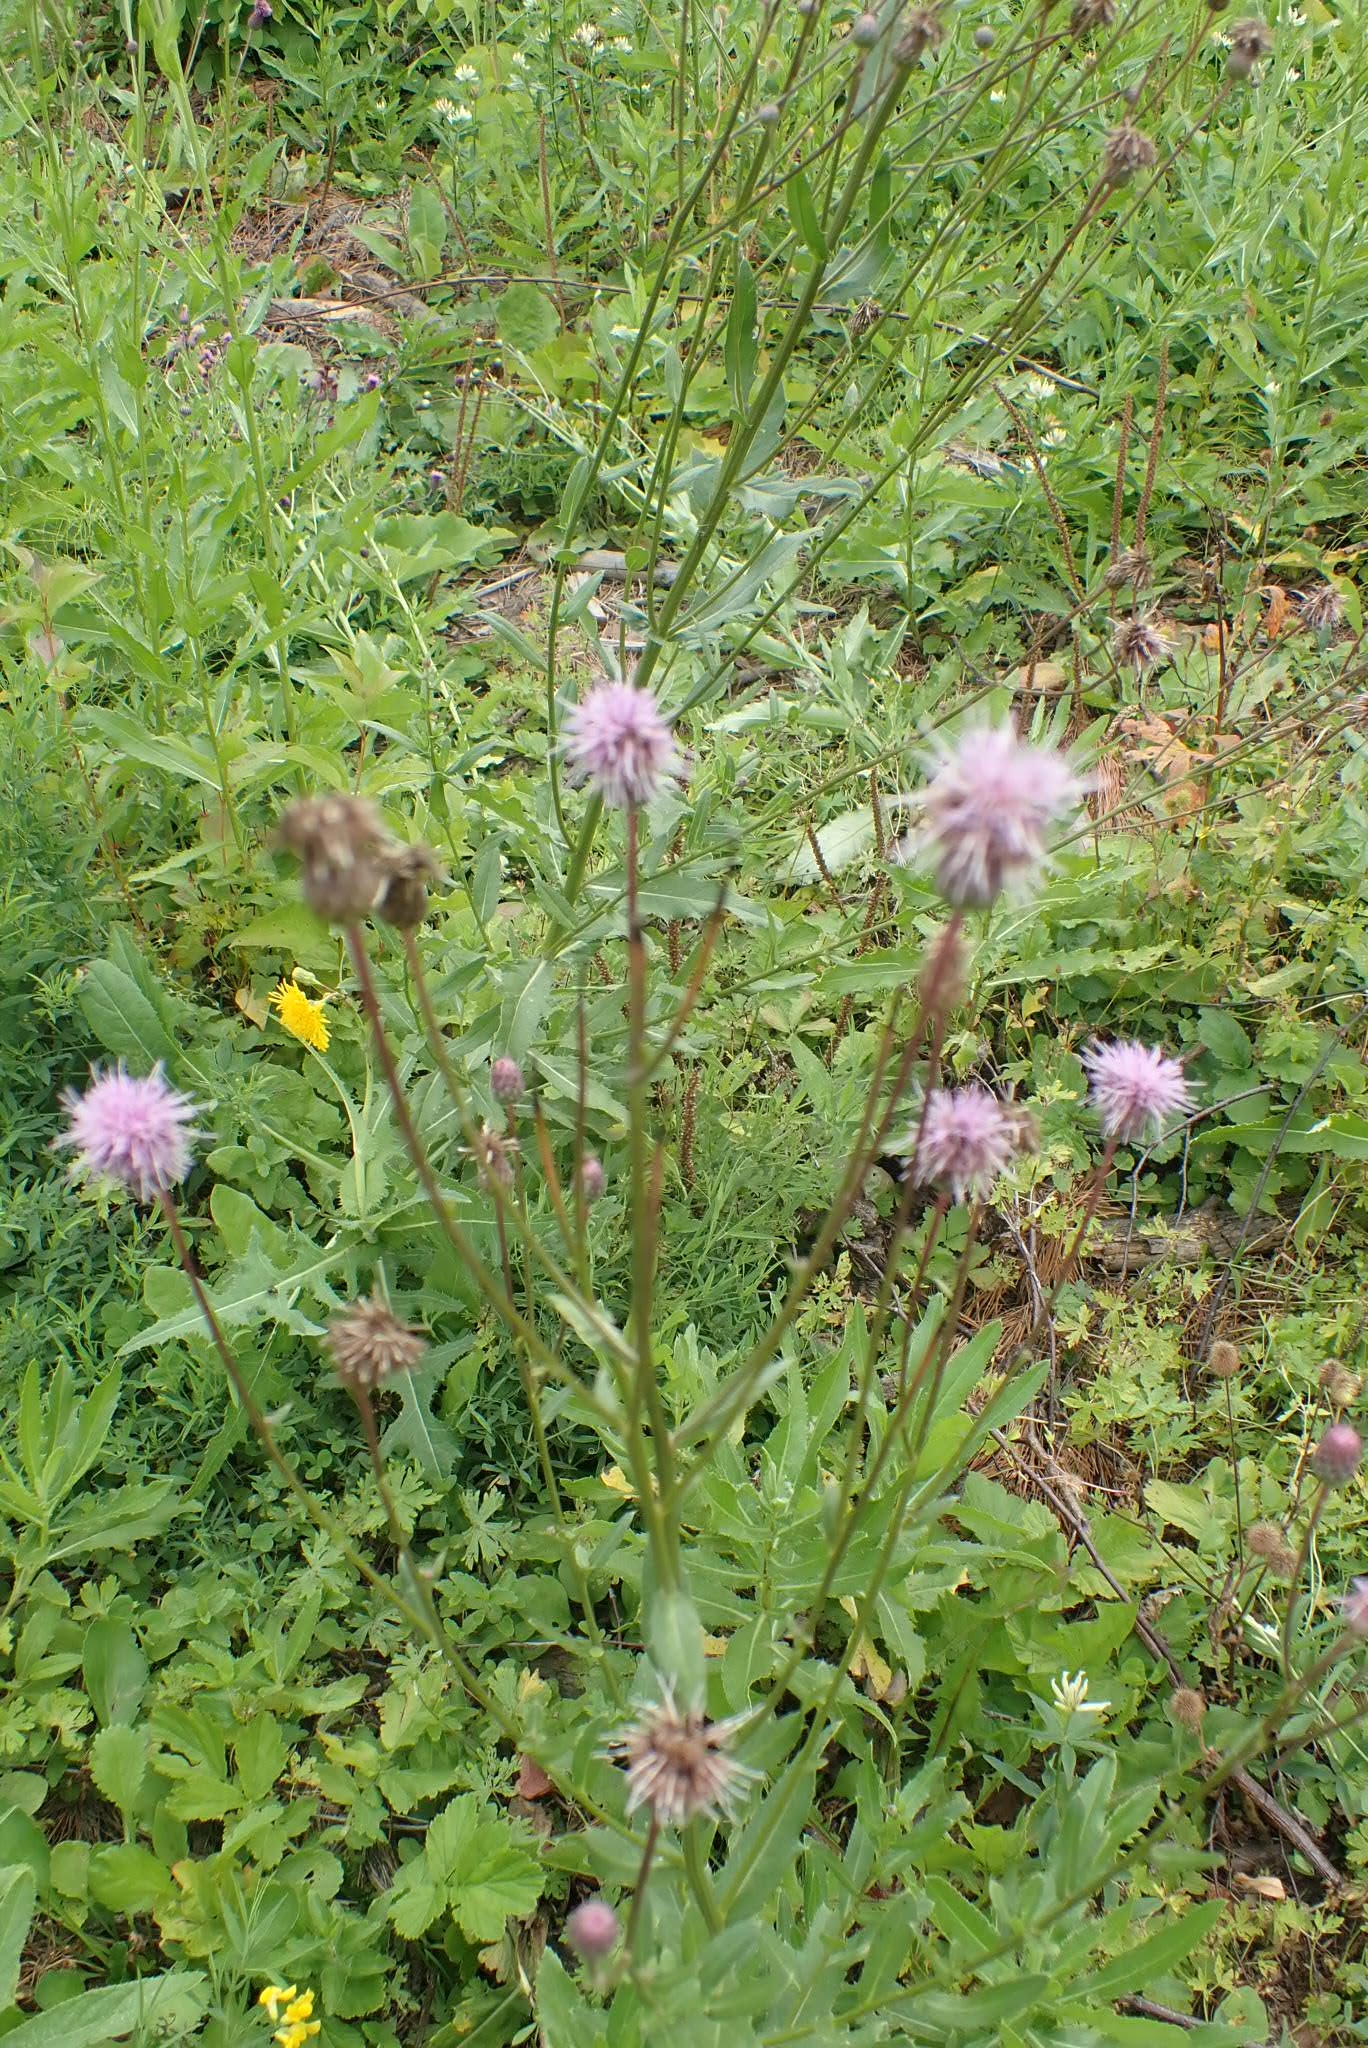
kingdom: Plantae
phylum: Tracheophyta
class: Magnoliopsida
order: Asterales
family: Asteraceae
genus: Cirsium
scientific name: Cirsium arvense
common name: Creeping thistle
